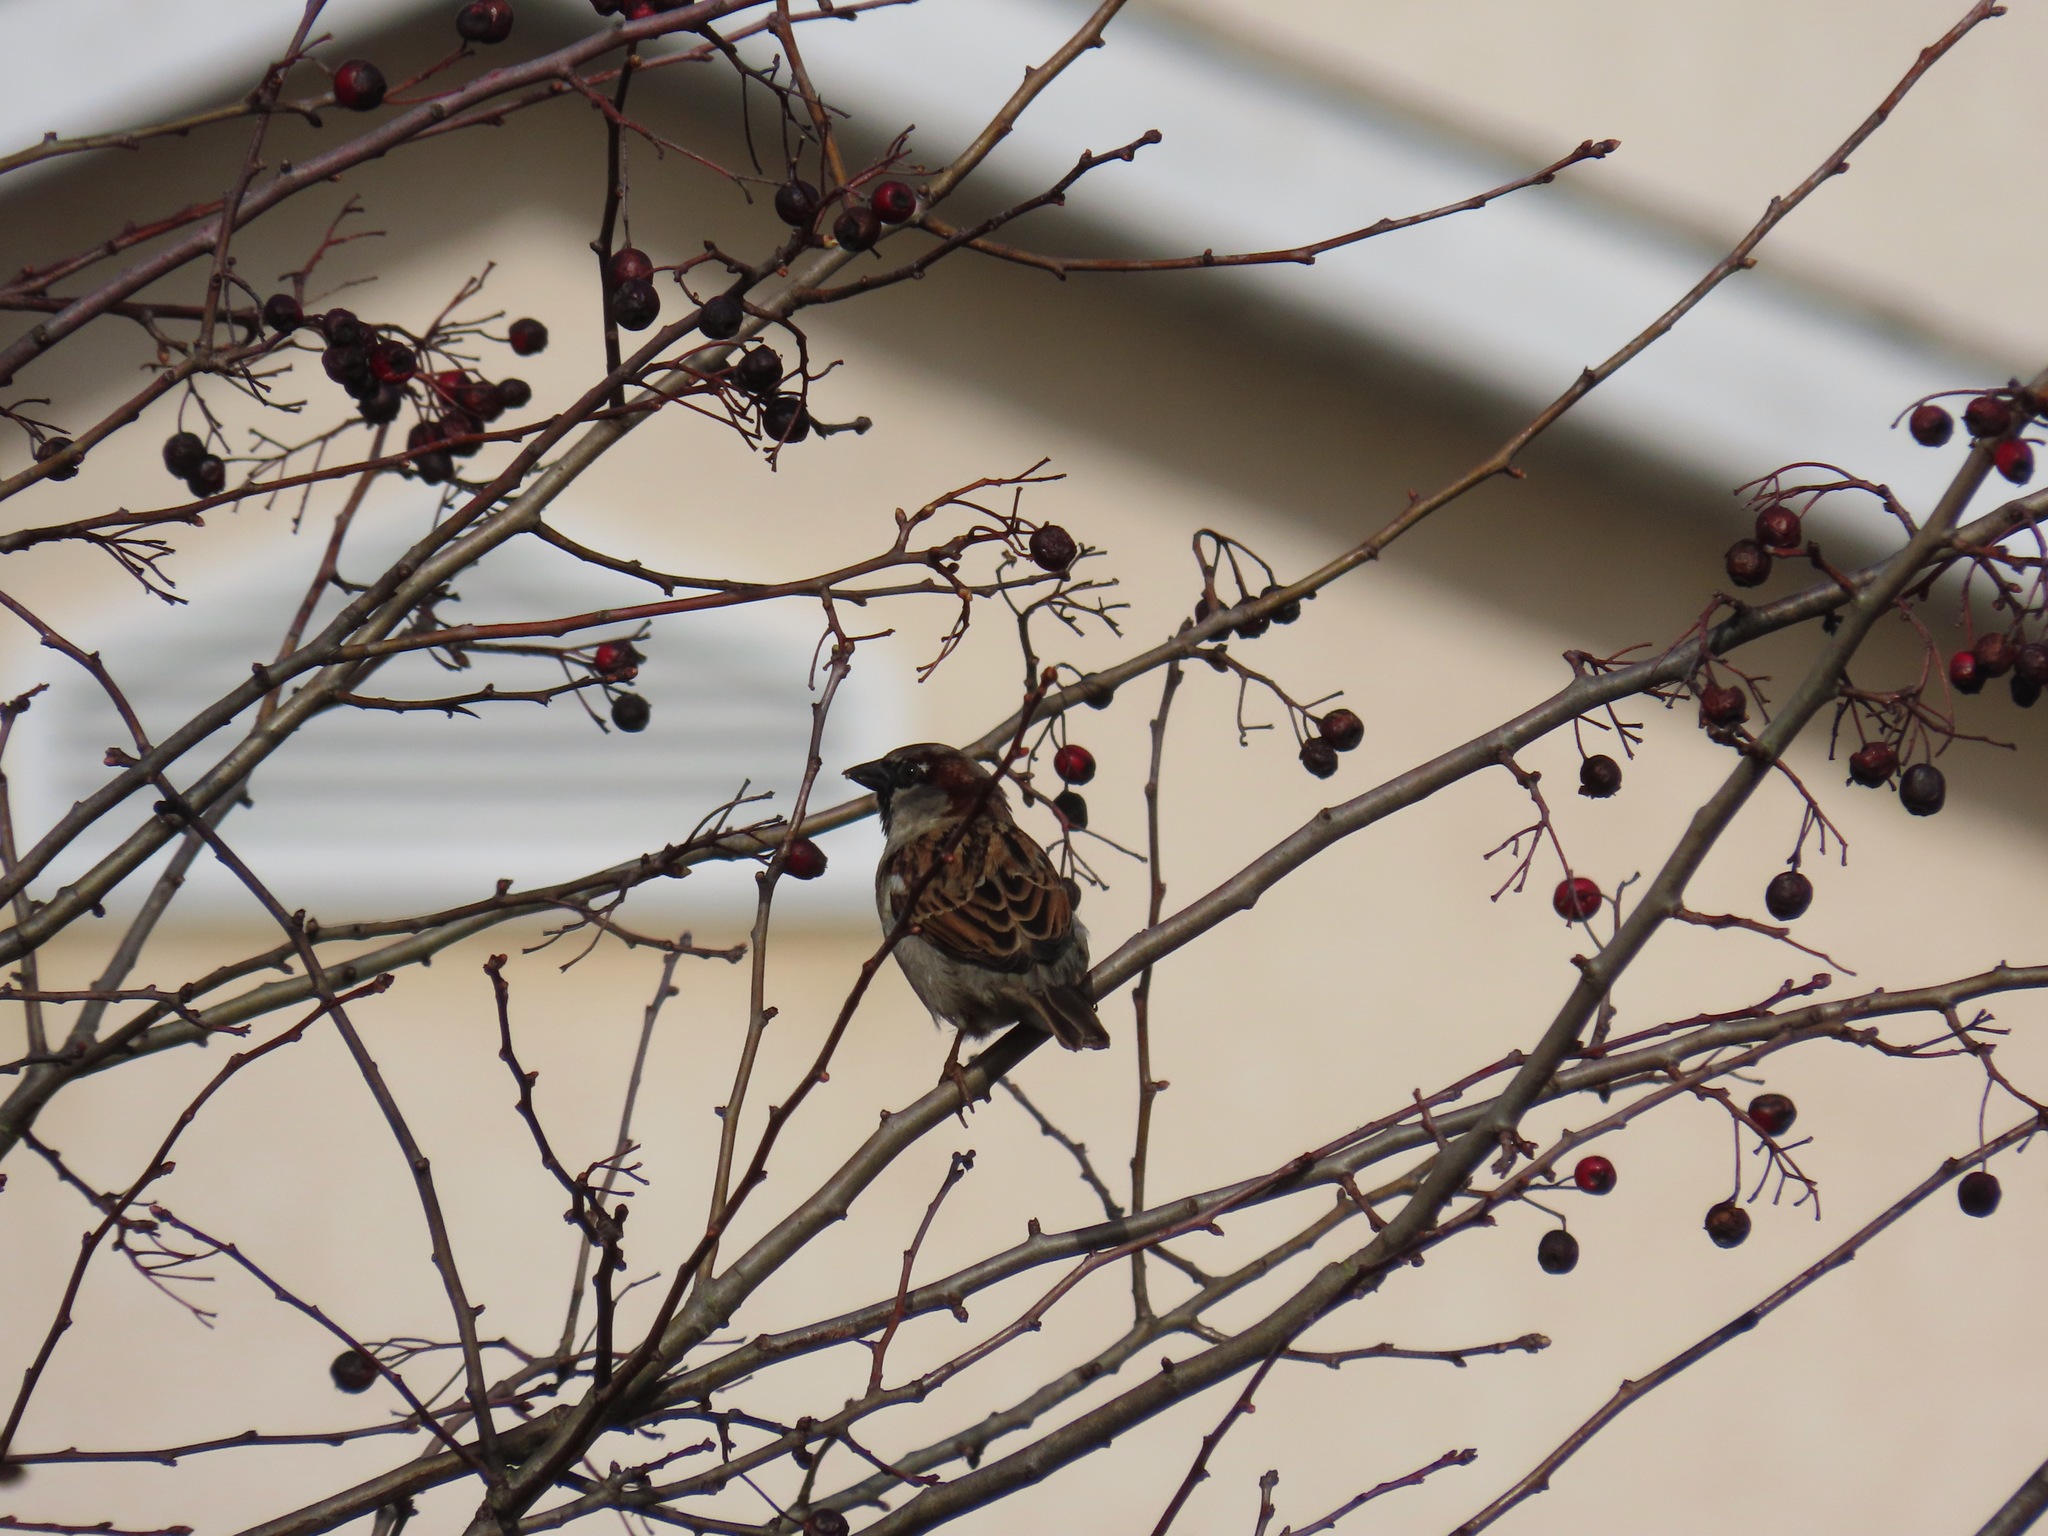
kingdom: Animalia
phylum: Chordata
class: Aves
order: Passeriformes
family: Passeridae
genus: Passer
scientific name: Passer domesticus
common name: House sparrow
